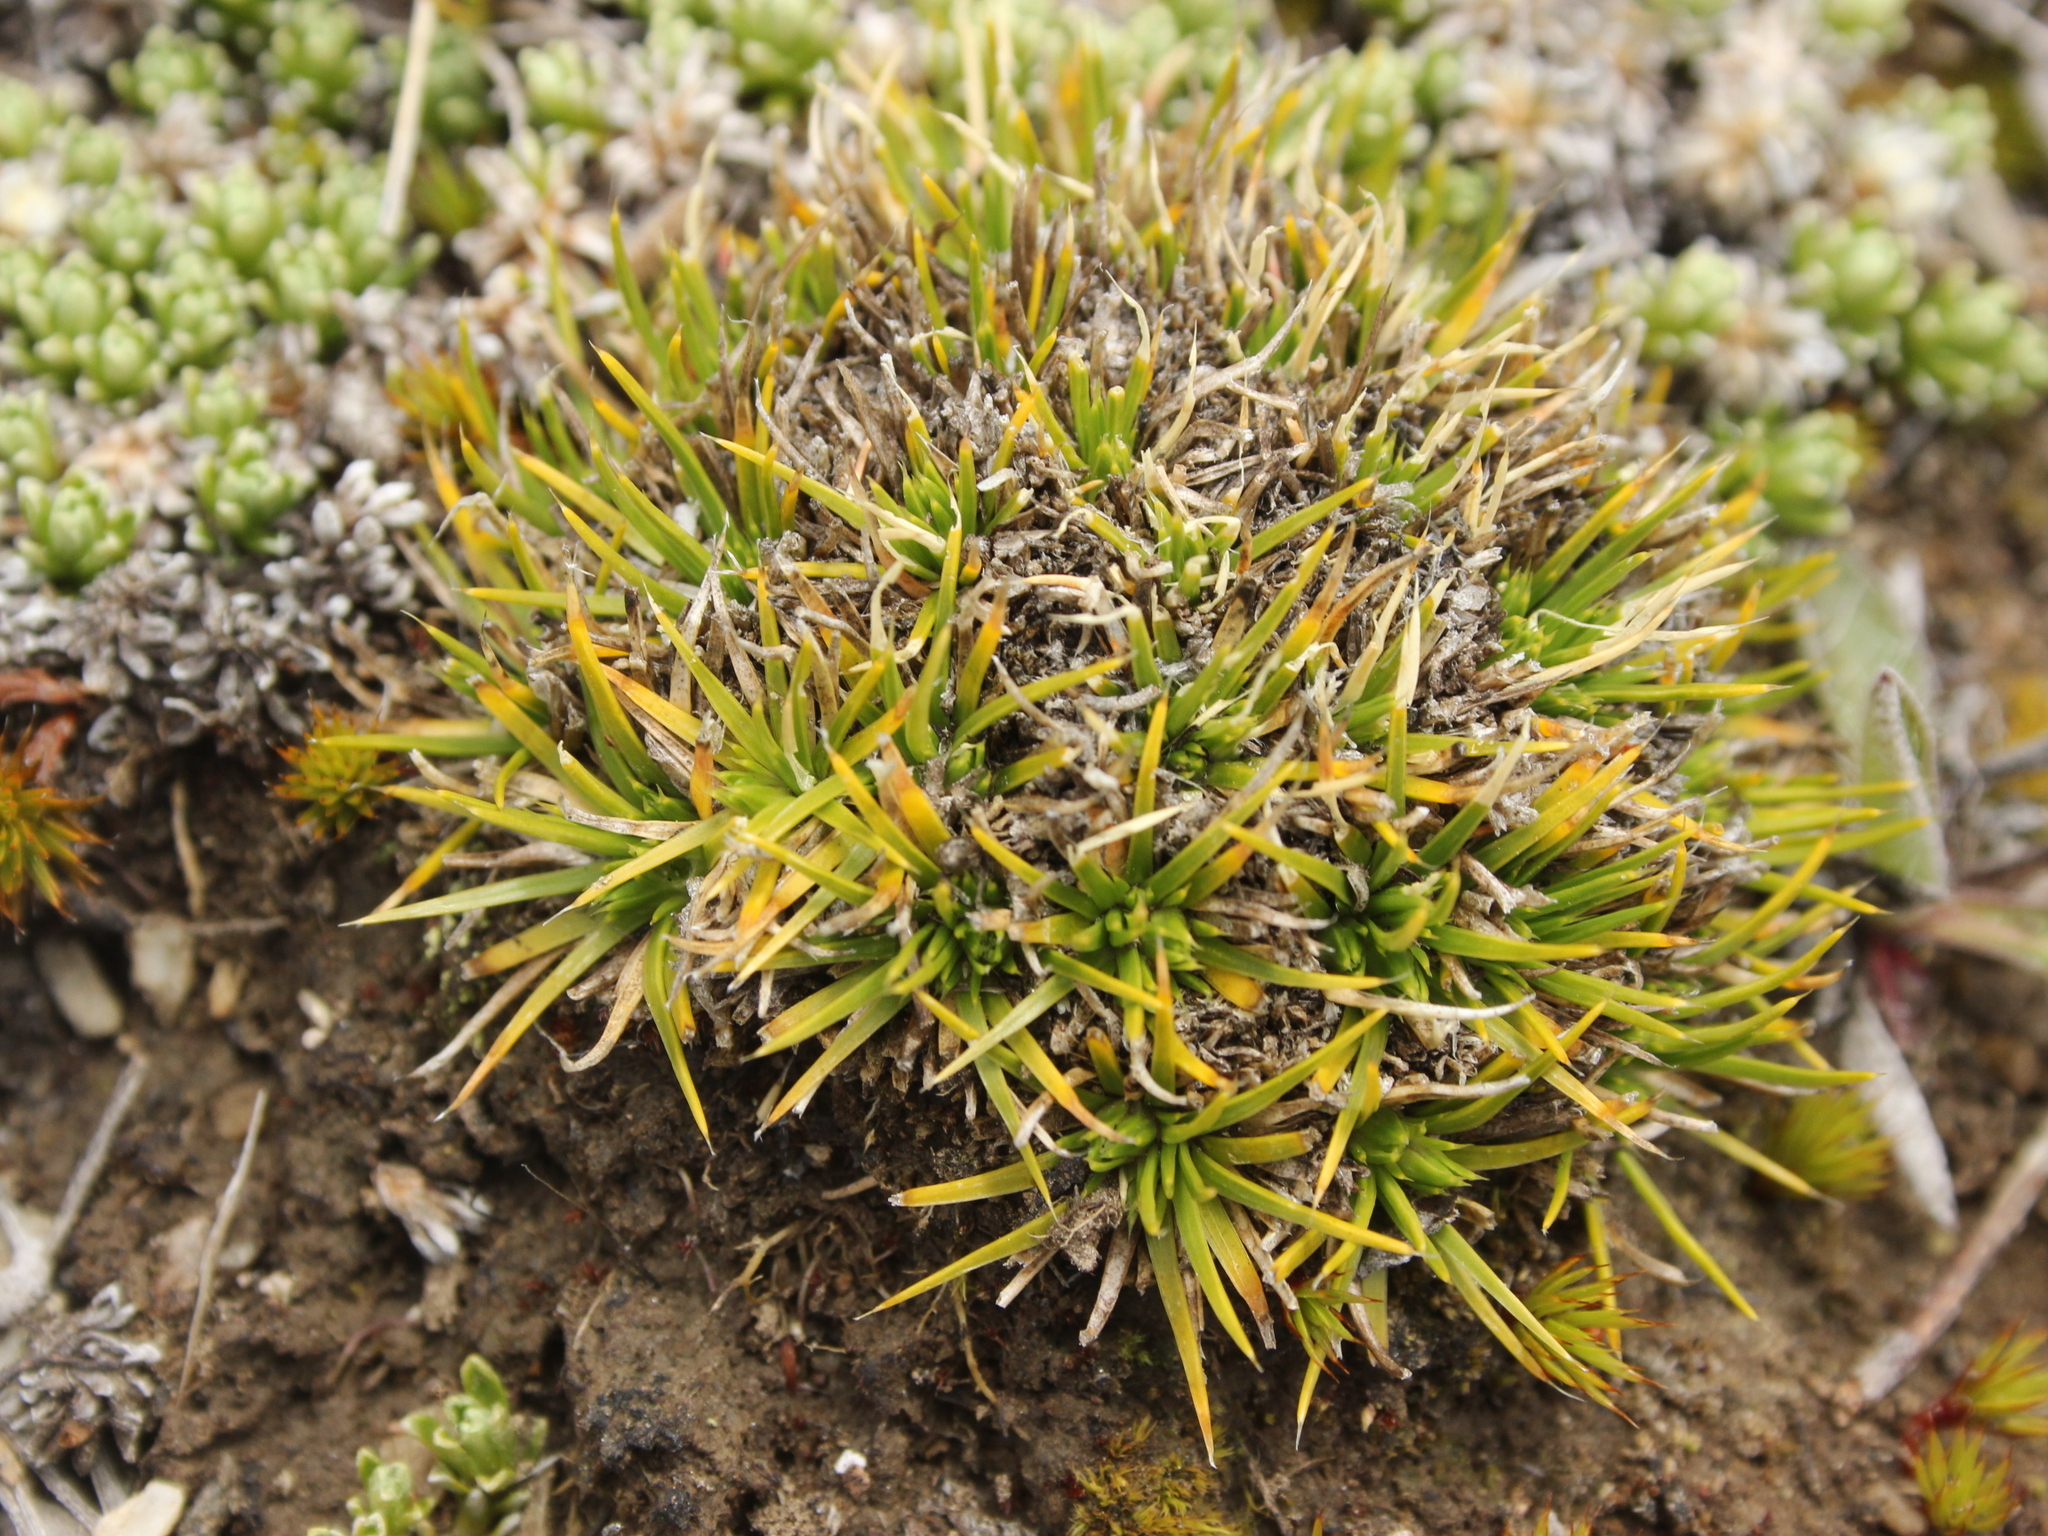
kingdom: Plantae
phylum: Tracheophyta
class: Magnoliopsida
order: Caryophyllales
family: Caryophyllaceae
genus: Colobanthus
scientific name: Colobanthus strictus
